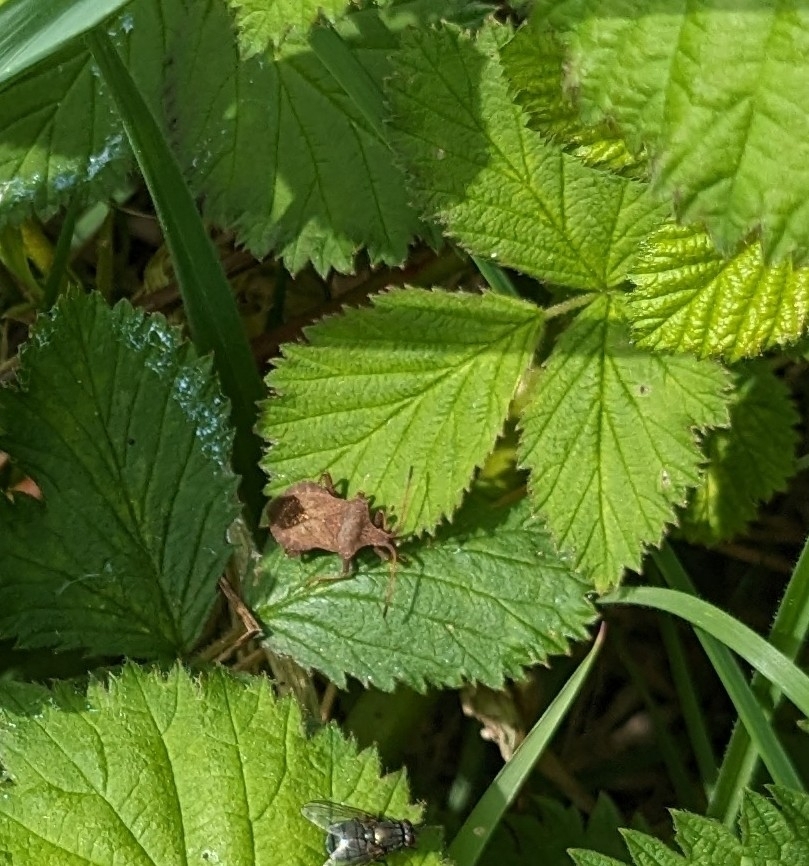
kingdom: Animalia
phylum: Arthropoda
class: Insecta
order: Hemiptera
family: Coreidae
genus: Coreus
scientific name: Coreus marginatus
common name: Dock bug
